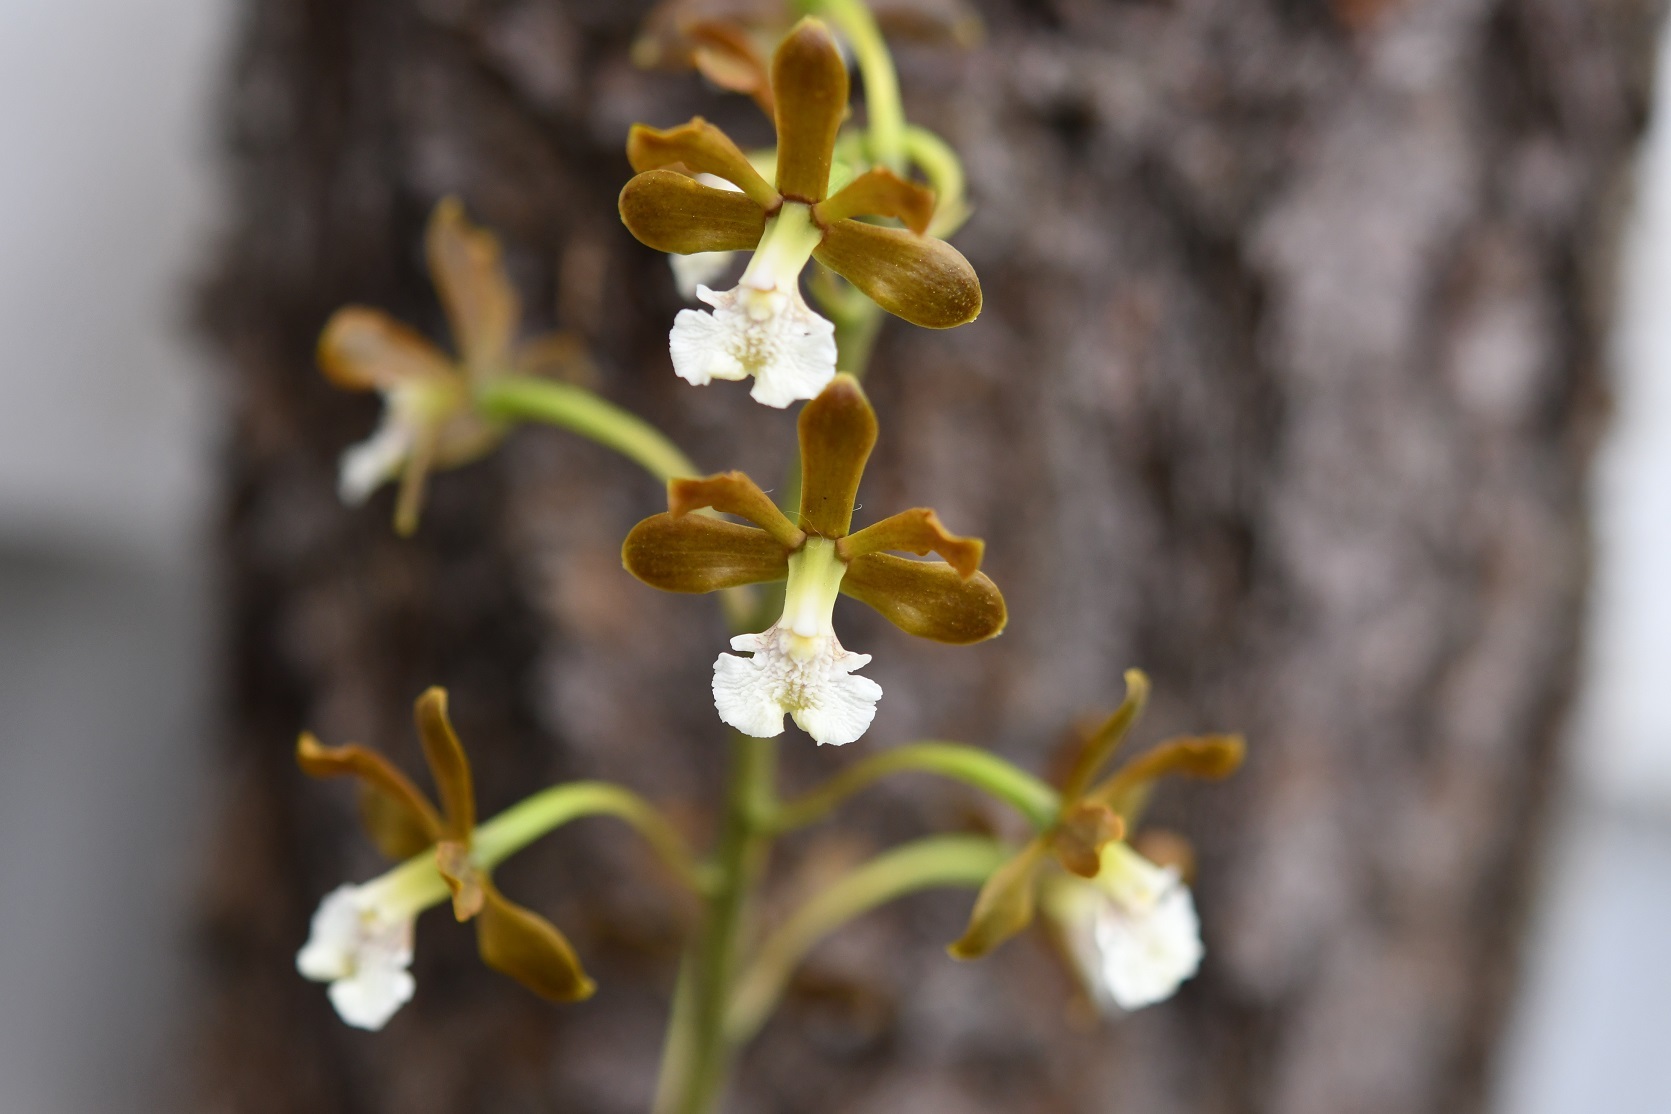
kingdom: Plantae
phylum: Tracheophyta
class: Liliopsida
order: Asparagales
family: Orchidaceae
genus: Prosthechea
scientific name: Prosthechea varicosa
